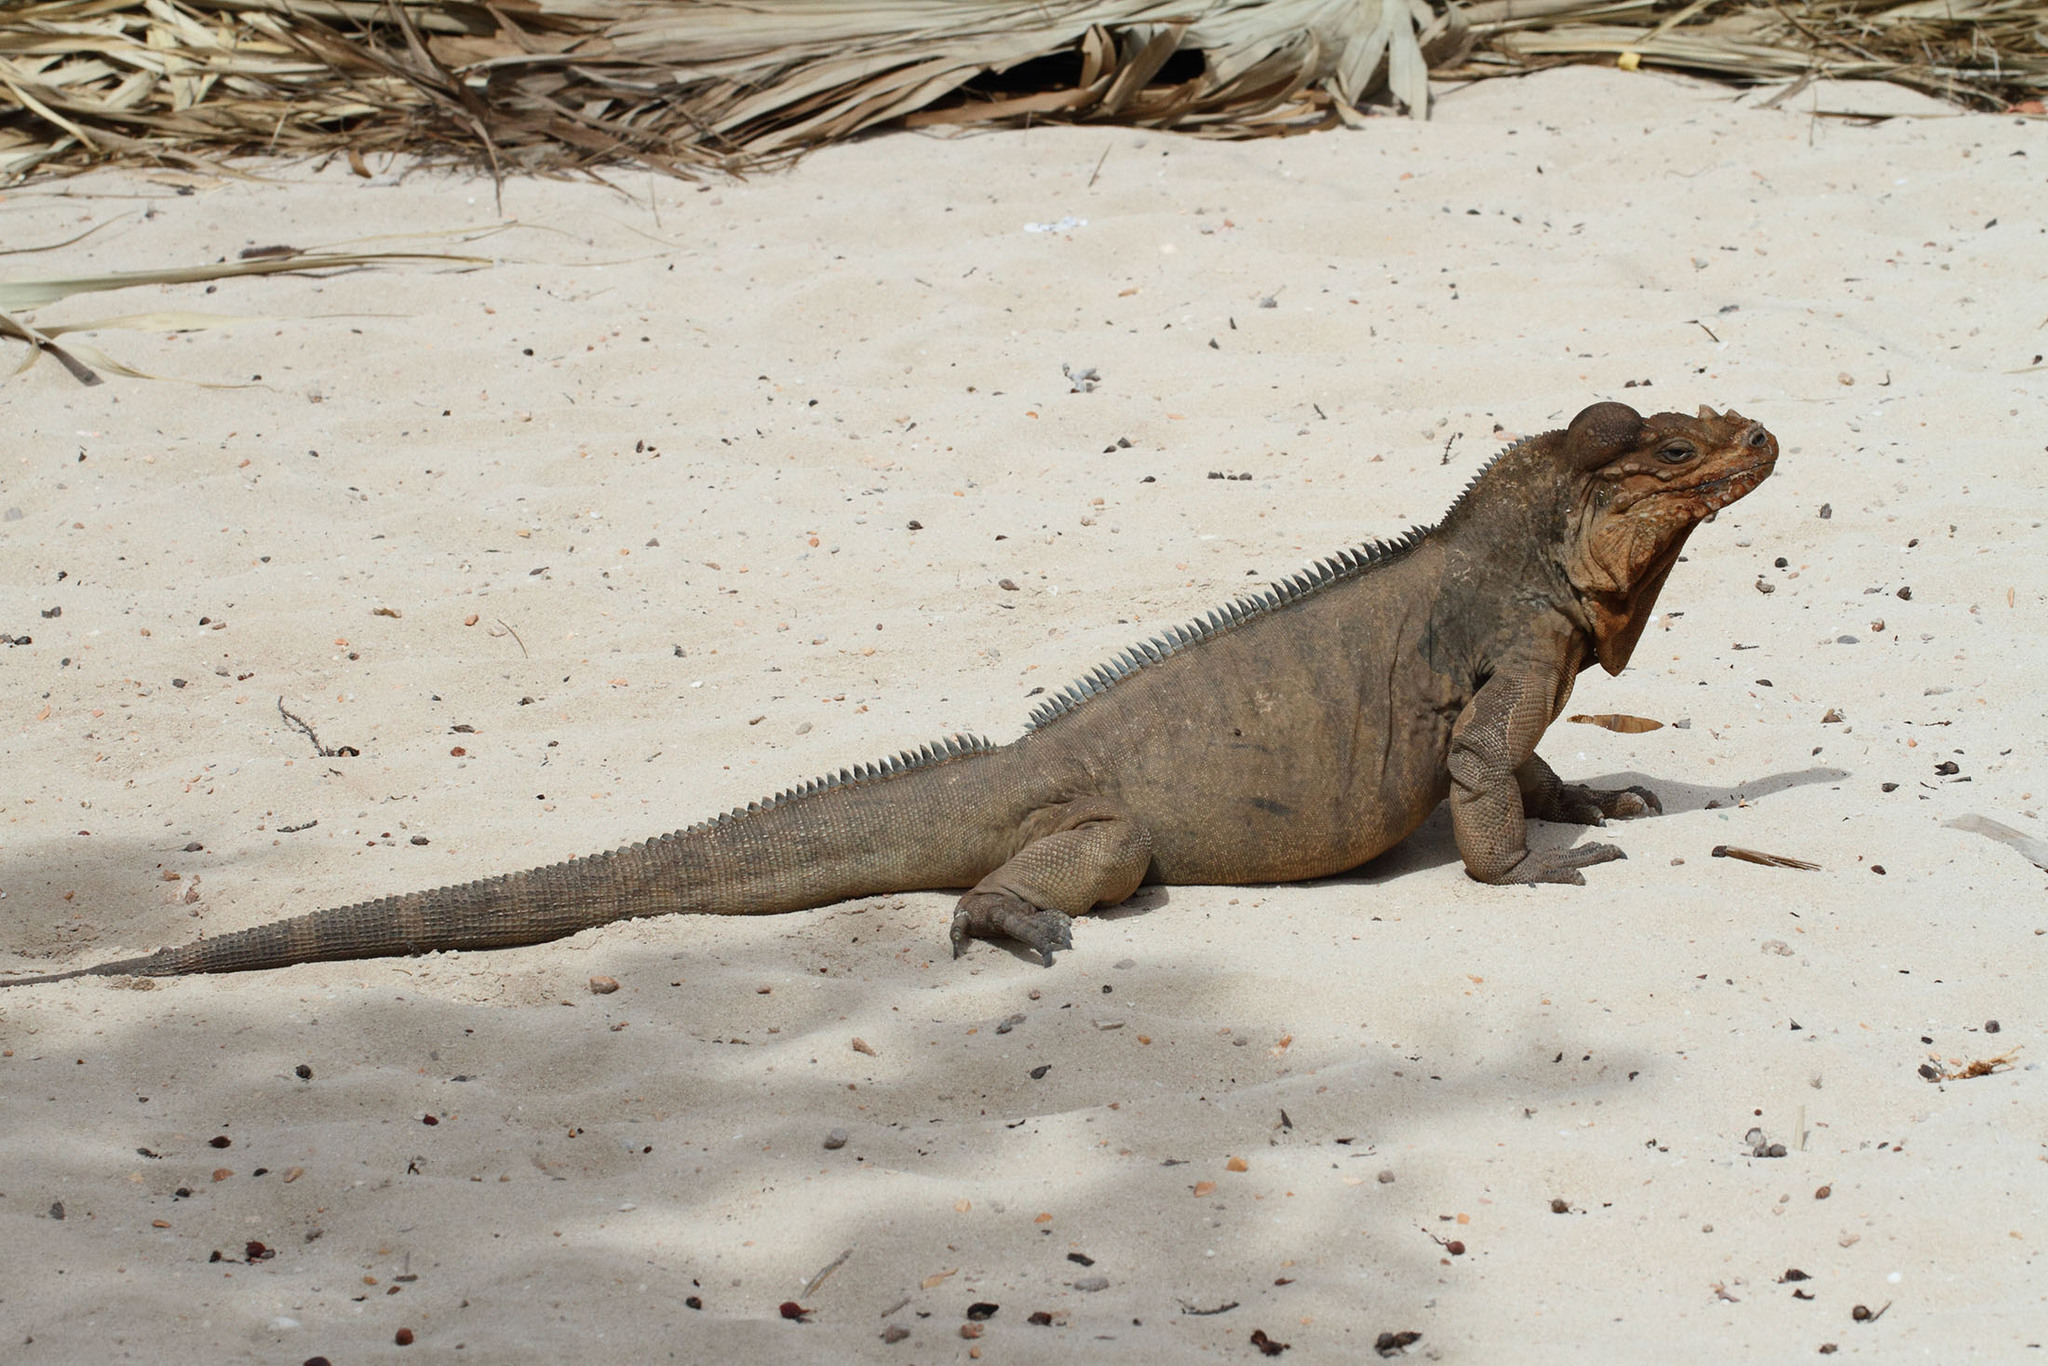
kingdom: Animalia
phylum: Chordata
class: Squamata
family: Iguanidae
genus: Cyclura
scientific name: Cyclura cornuta
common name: Hispaniolan rhinoceros iguana
